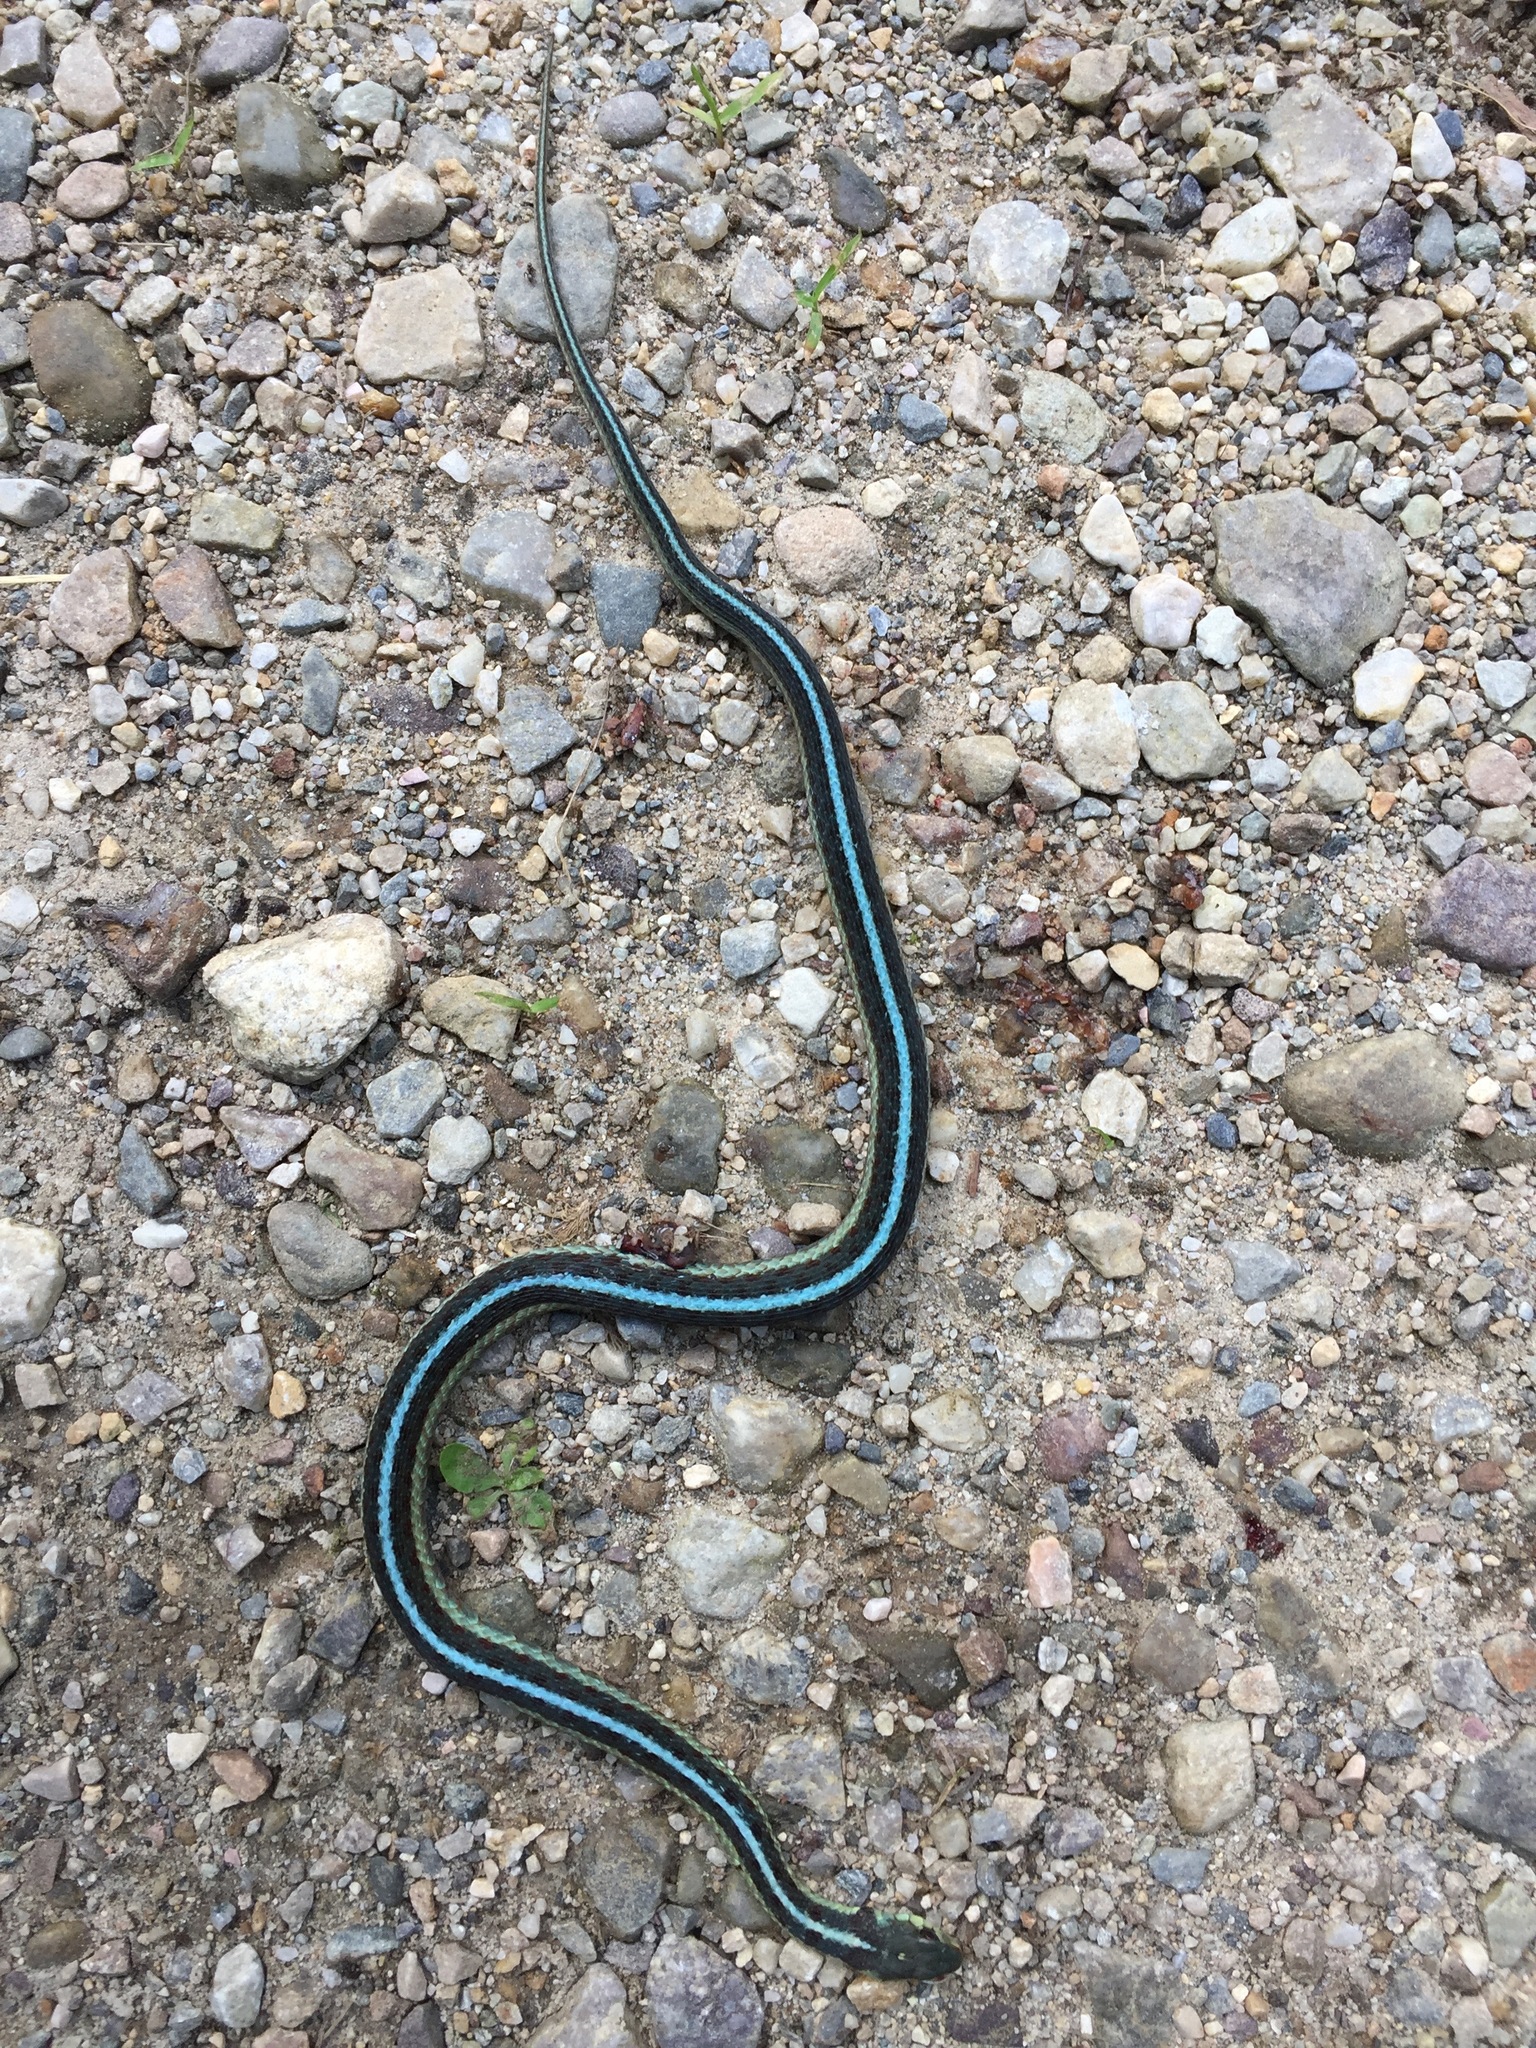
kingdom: Animalia
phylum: Chordata
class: Squamata
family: Colubridae
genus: Thamnophis
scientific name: Thamnophis sirtalis
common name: Common garter snake
